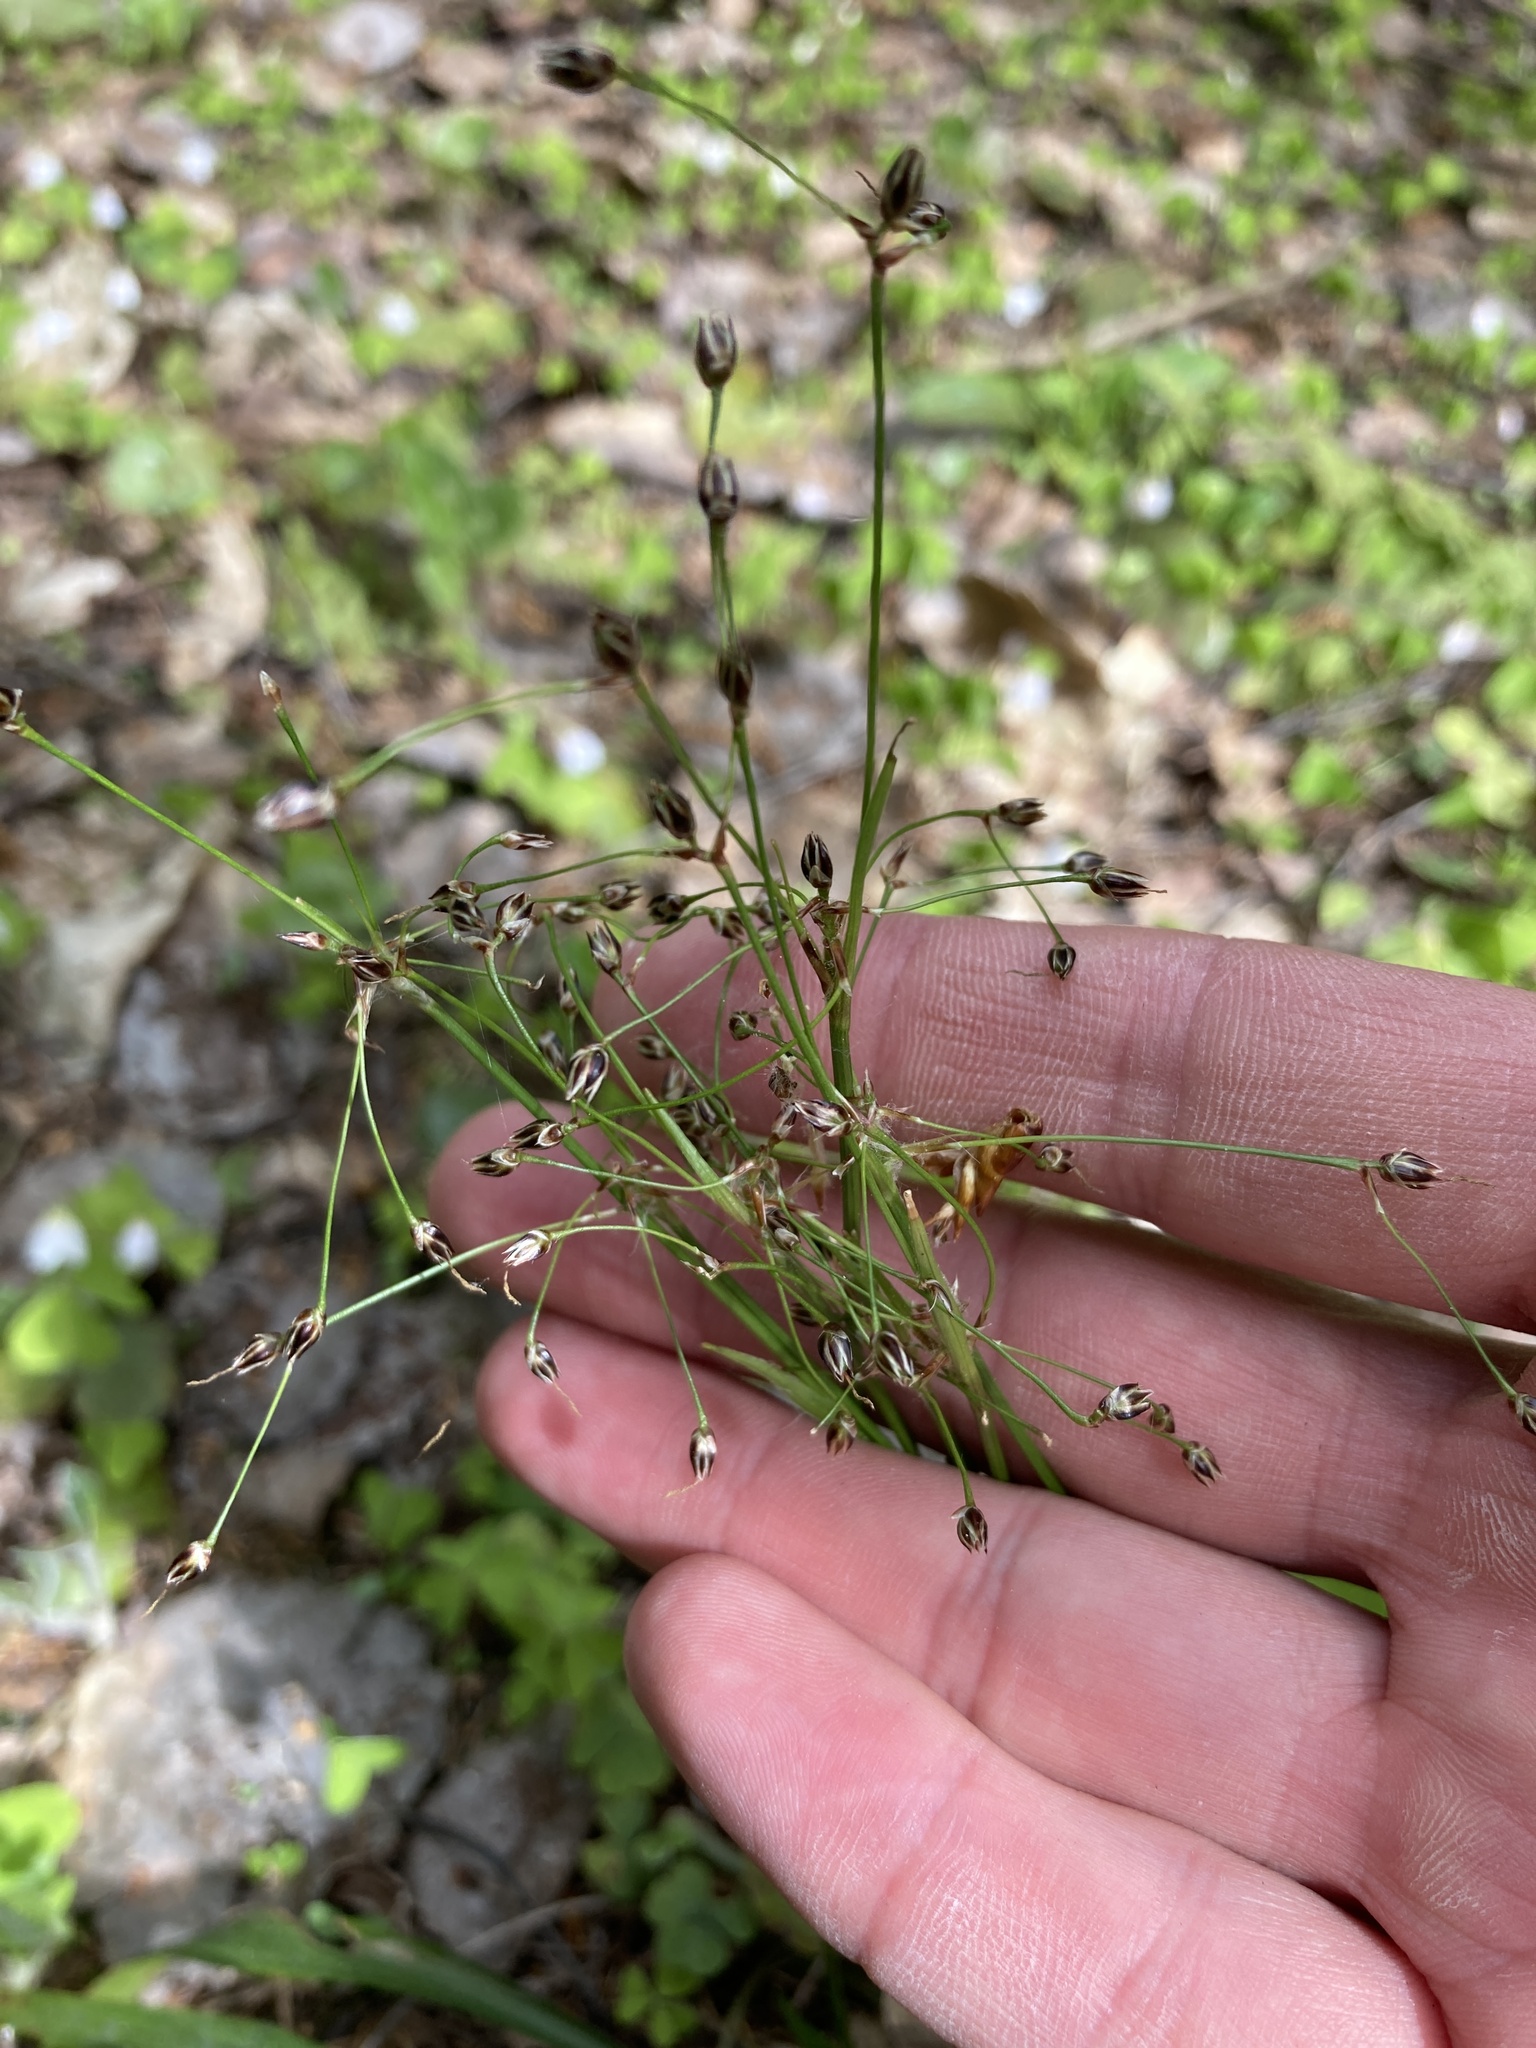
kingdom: Plantae
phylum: Tracheophyta
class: Liliopsida
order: Poales
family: Juncaceae
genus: Luzula
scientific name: Luzula pilosa
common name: Hairy wood-rush
